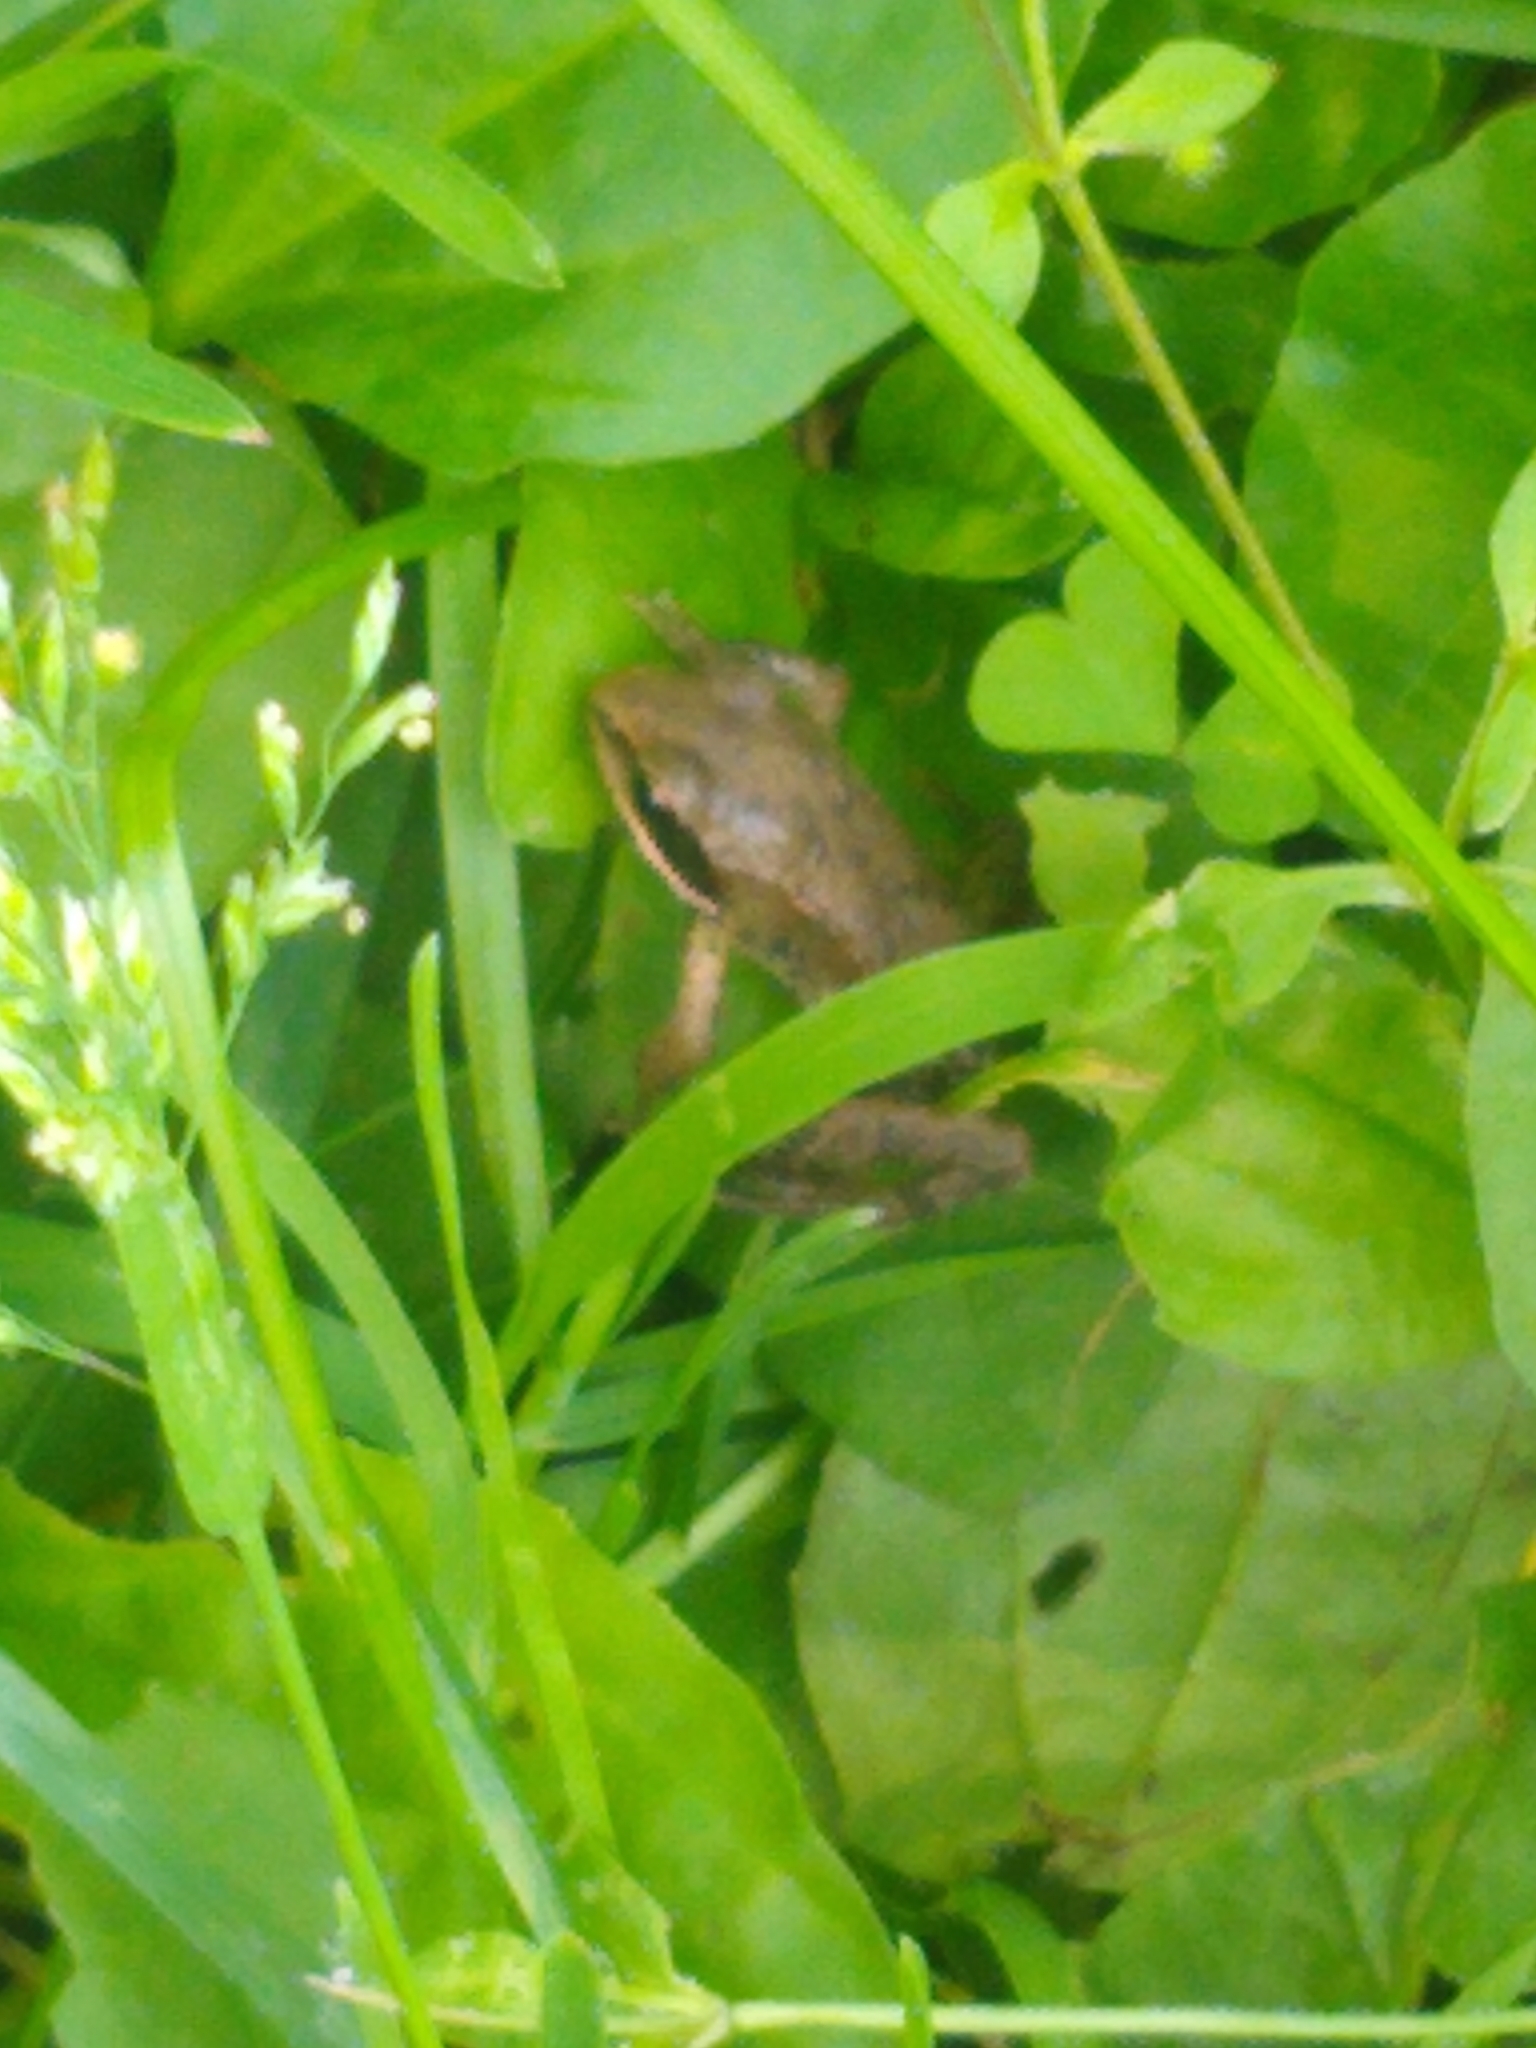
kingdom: Animalia
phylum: Chordata
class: Amphibia
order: Anura
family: Ranidae
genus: Lithobates
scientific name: Lithobates sylvaticus
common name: Wood frog
